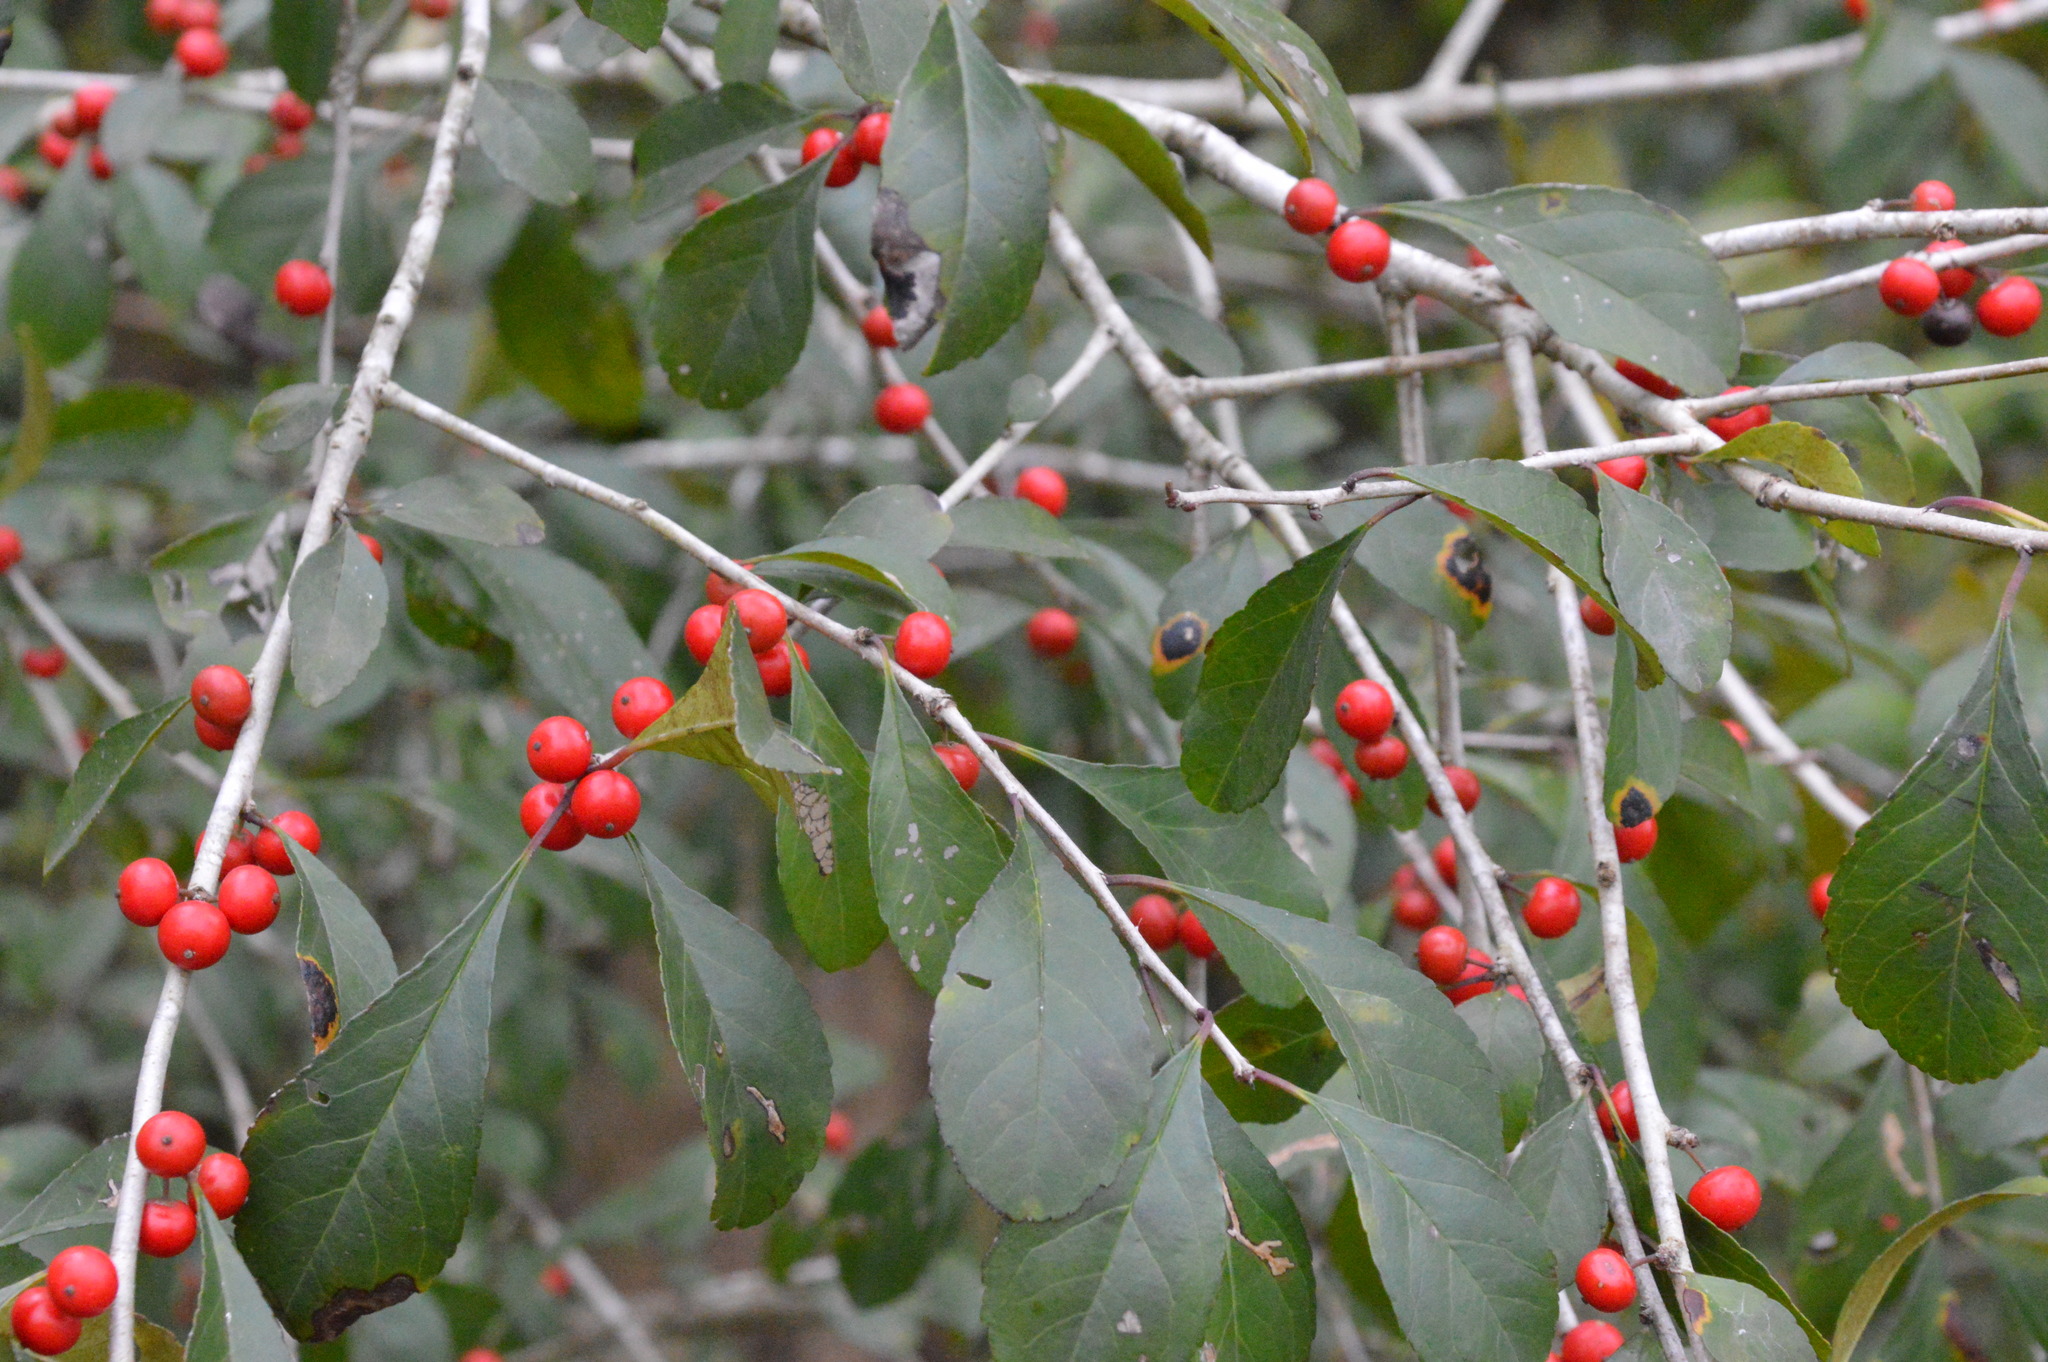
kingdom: Plantae
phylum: Tracheophyta
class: Magnoliopsida
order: Aquifoliales
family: Aquifoliaceae
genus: Ilex
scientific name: Ilex decidua
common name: Possum-haw
